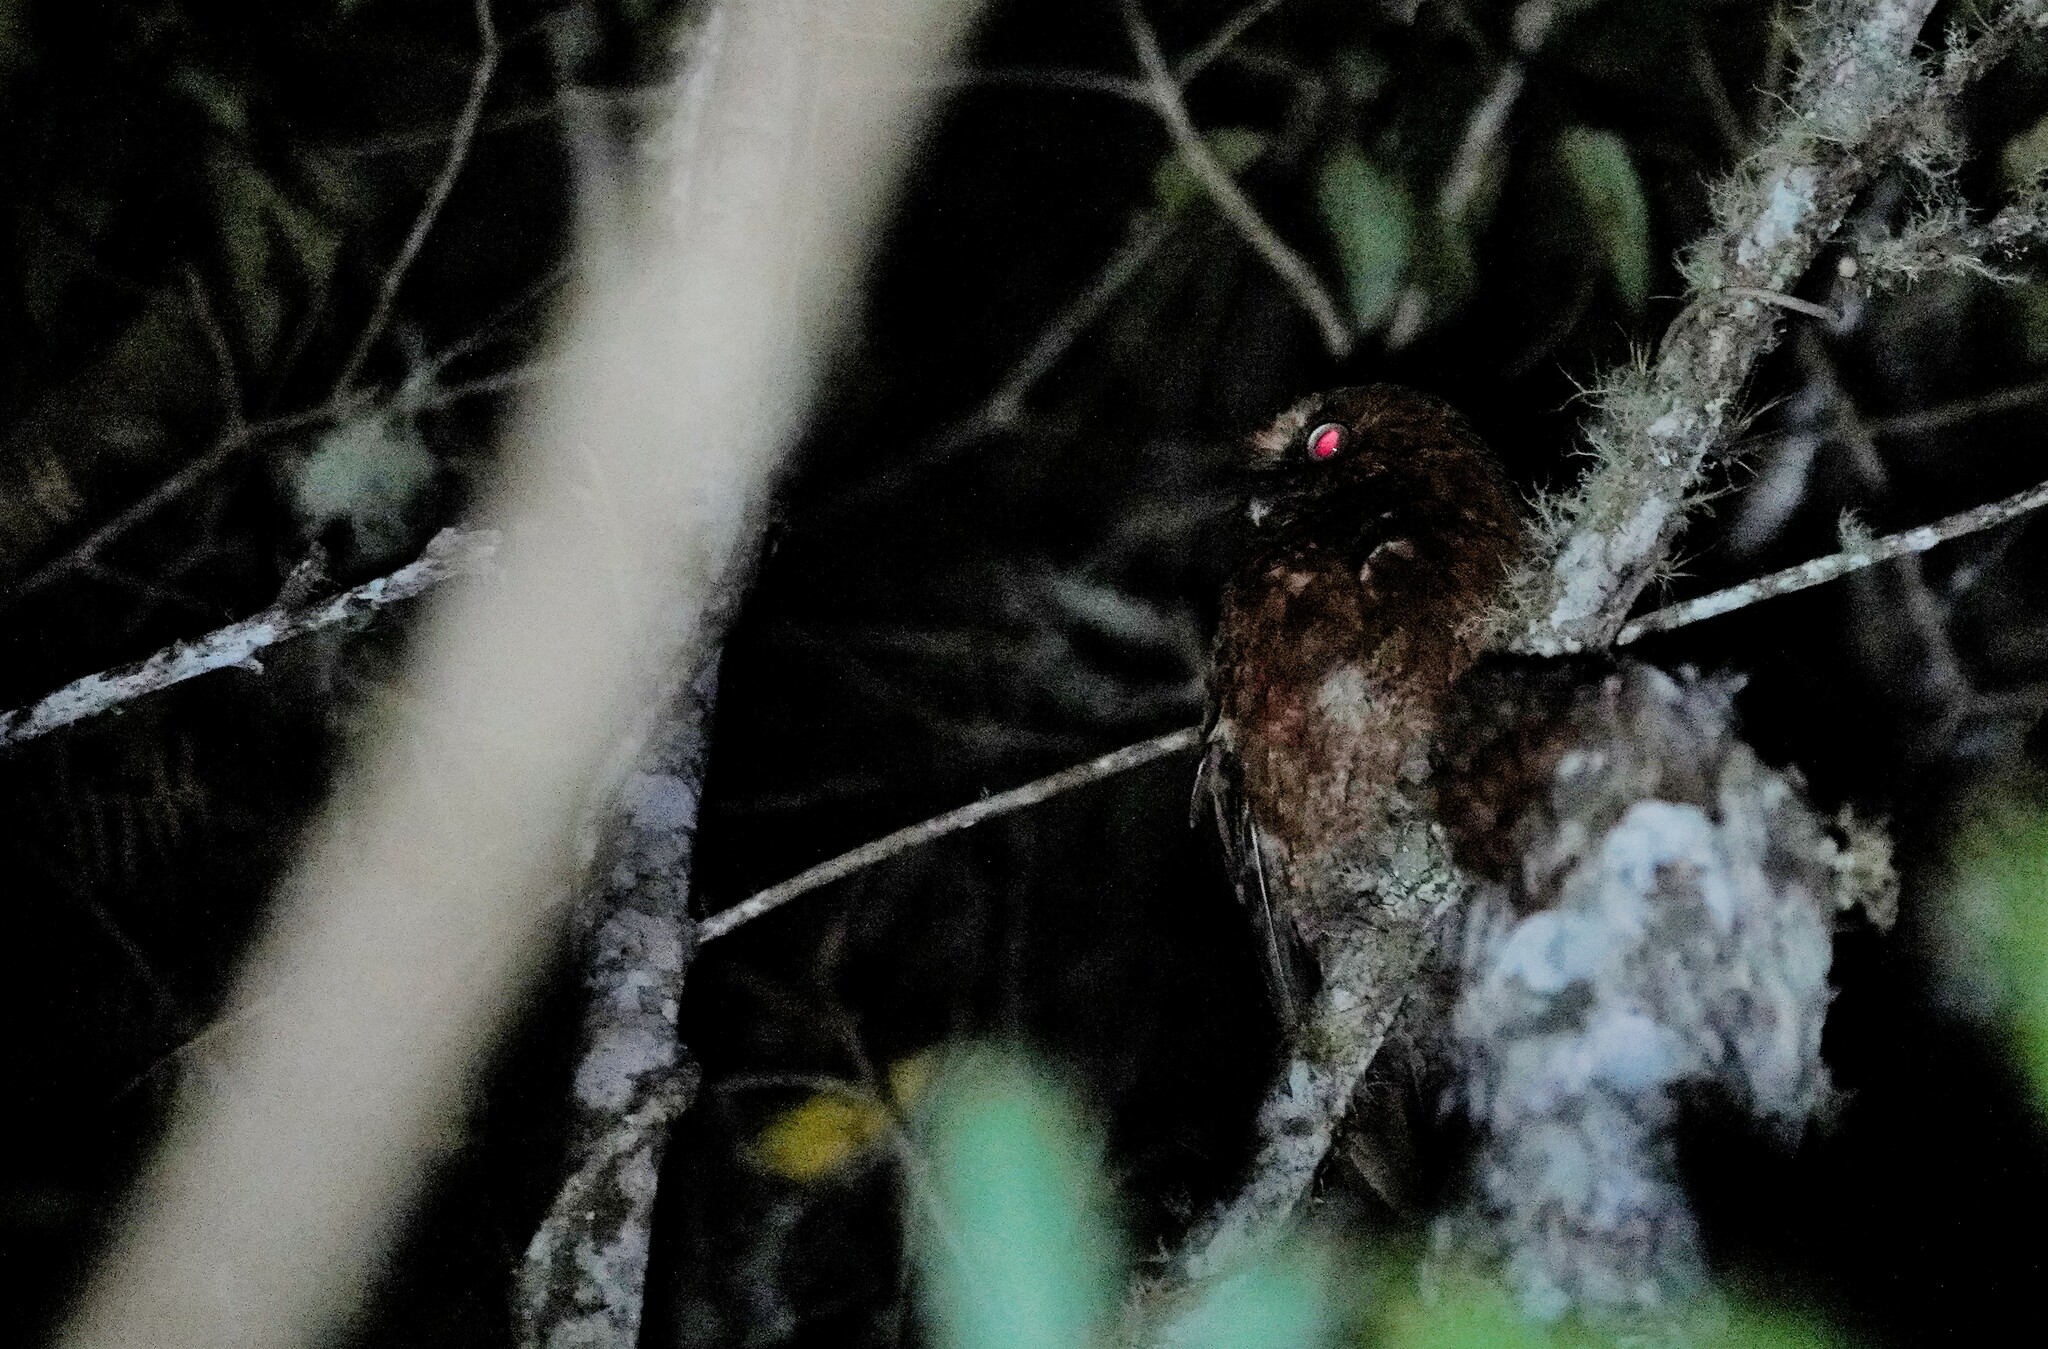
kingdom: Animalia
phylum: Chordata
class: Aves
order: Strigiformes
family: Strigidae
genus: Megascops
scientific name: Megascops gilesi
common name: Santa marta screech owl
